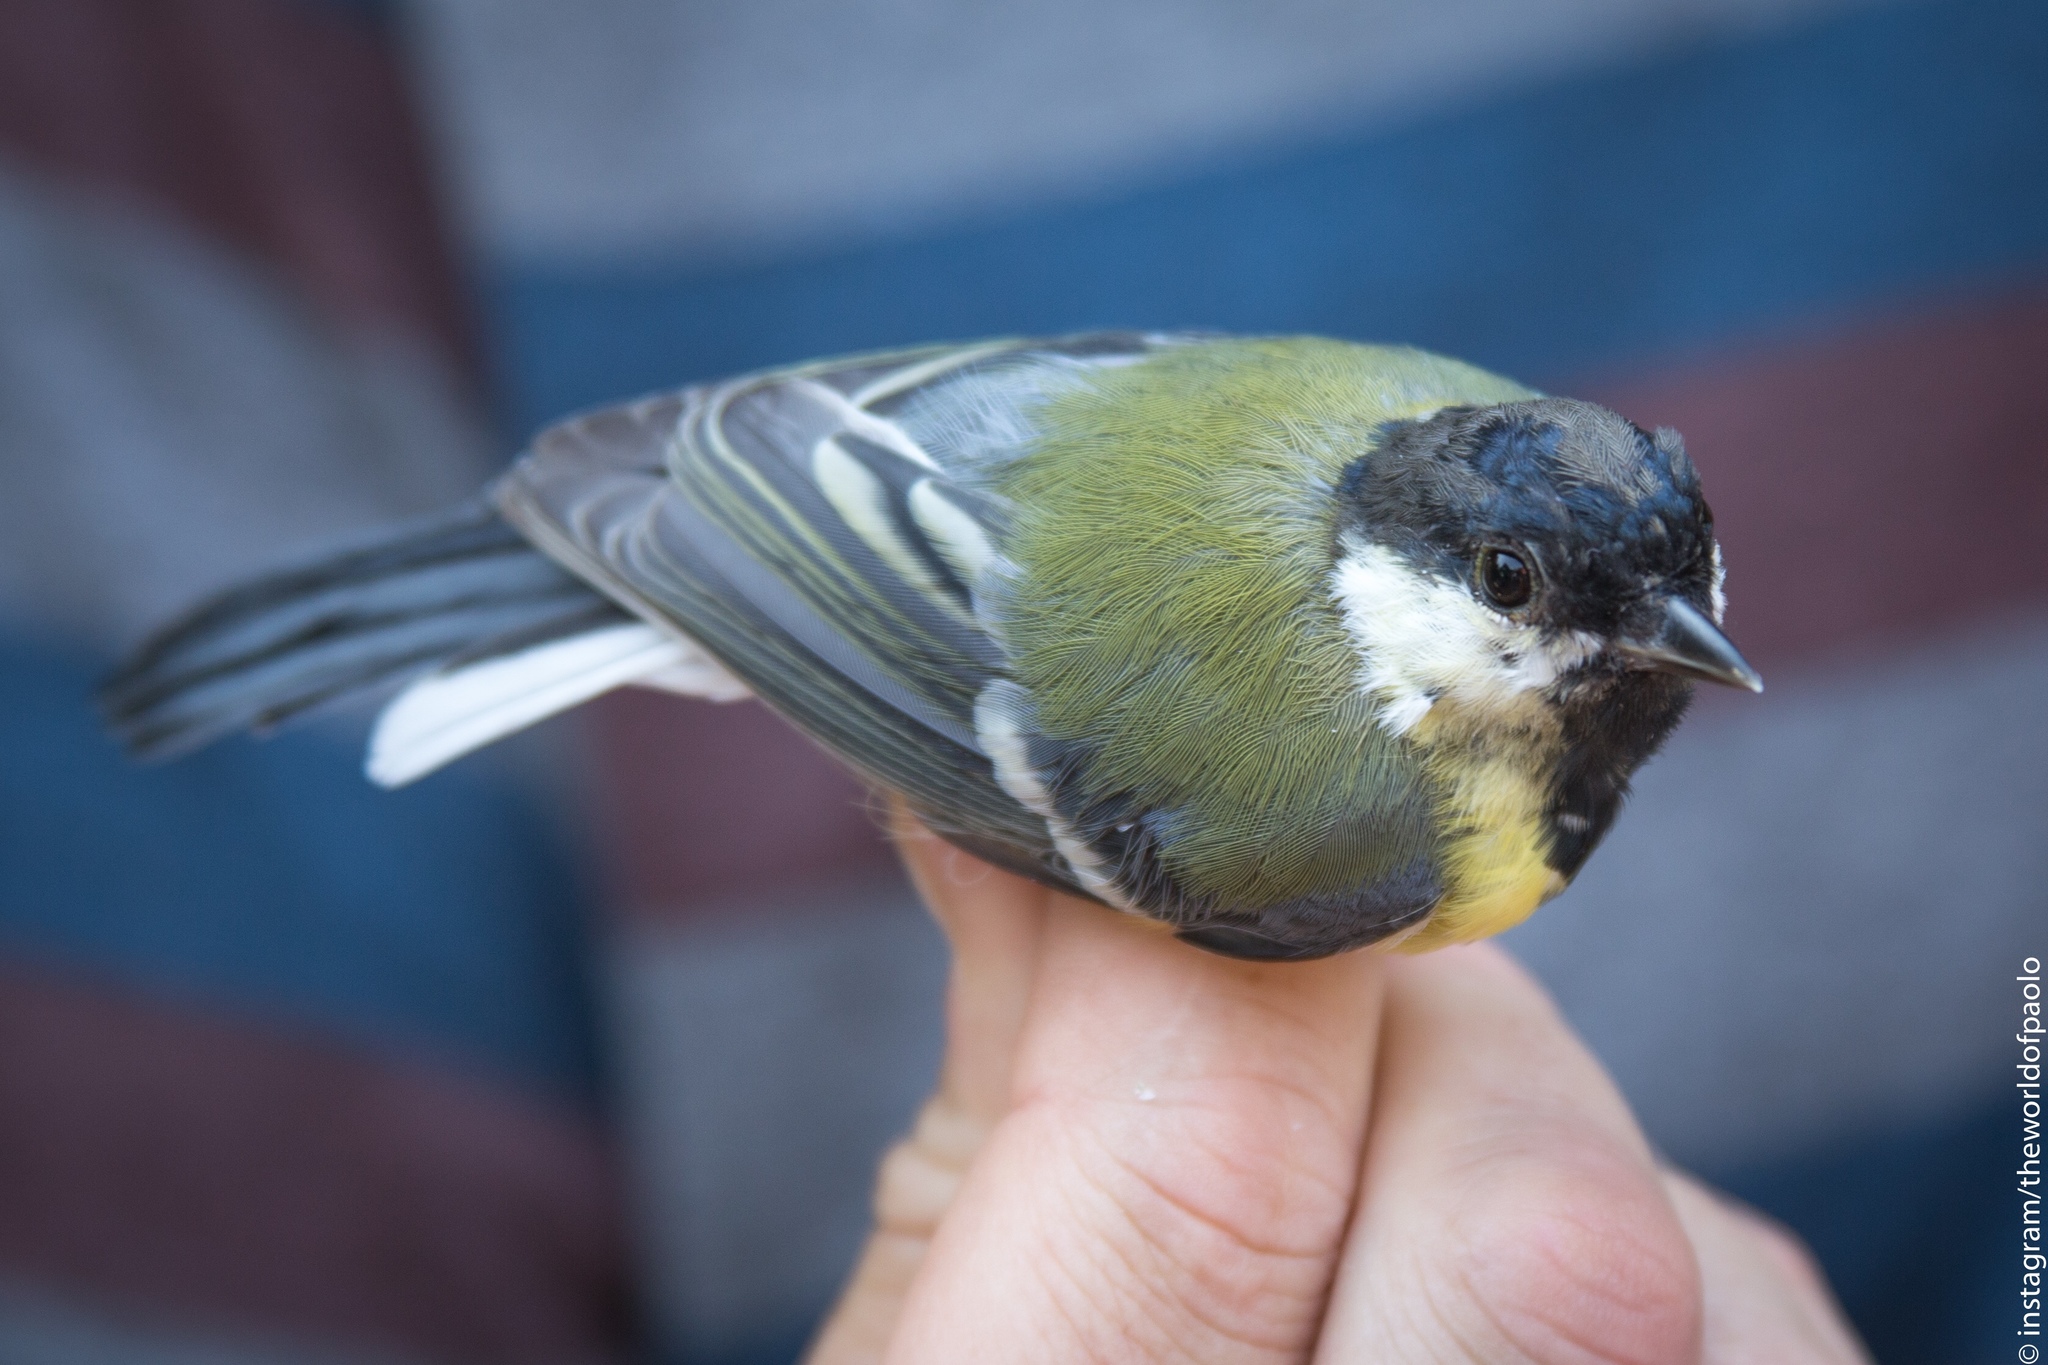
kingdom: Animalia
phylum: Chordata
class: Aves
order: Passeriformes
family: Paridae
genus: Parus
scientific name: Parus major
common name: Great tit
